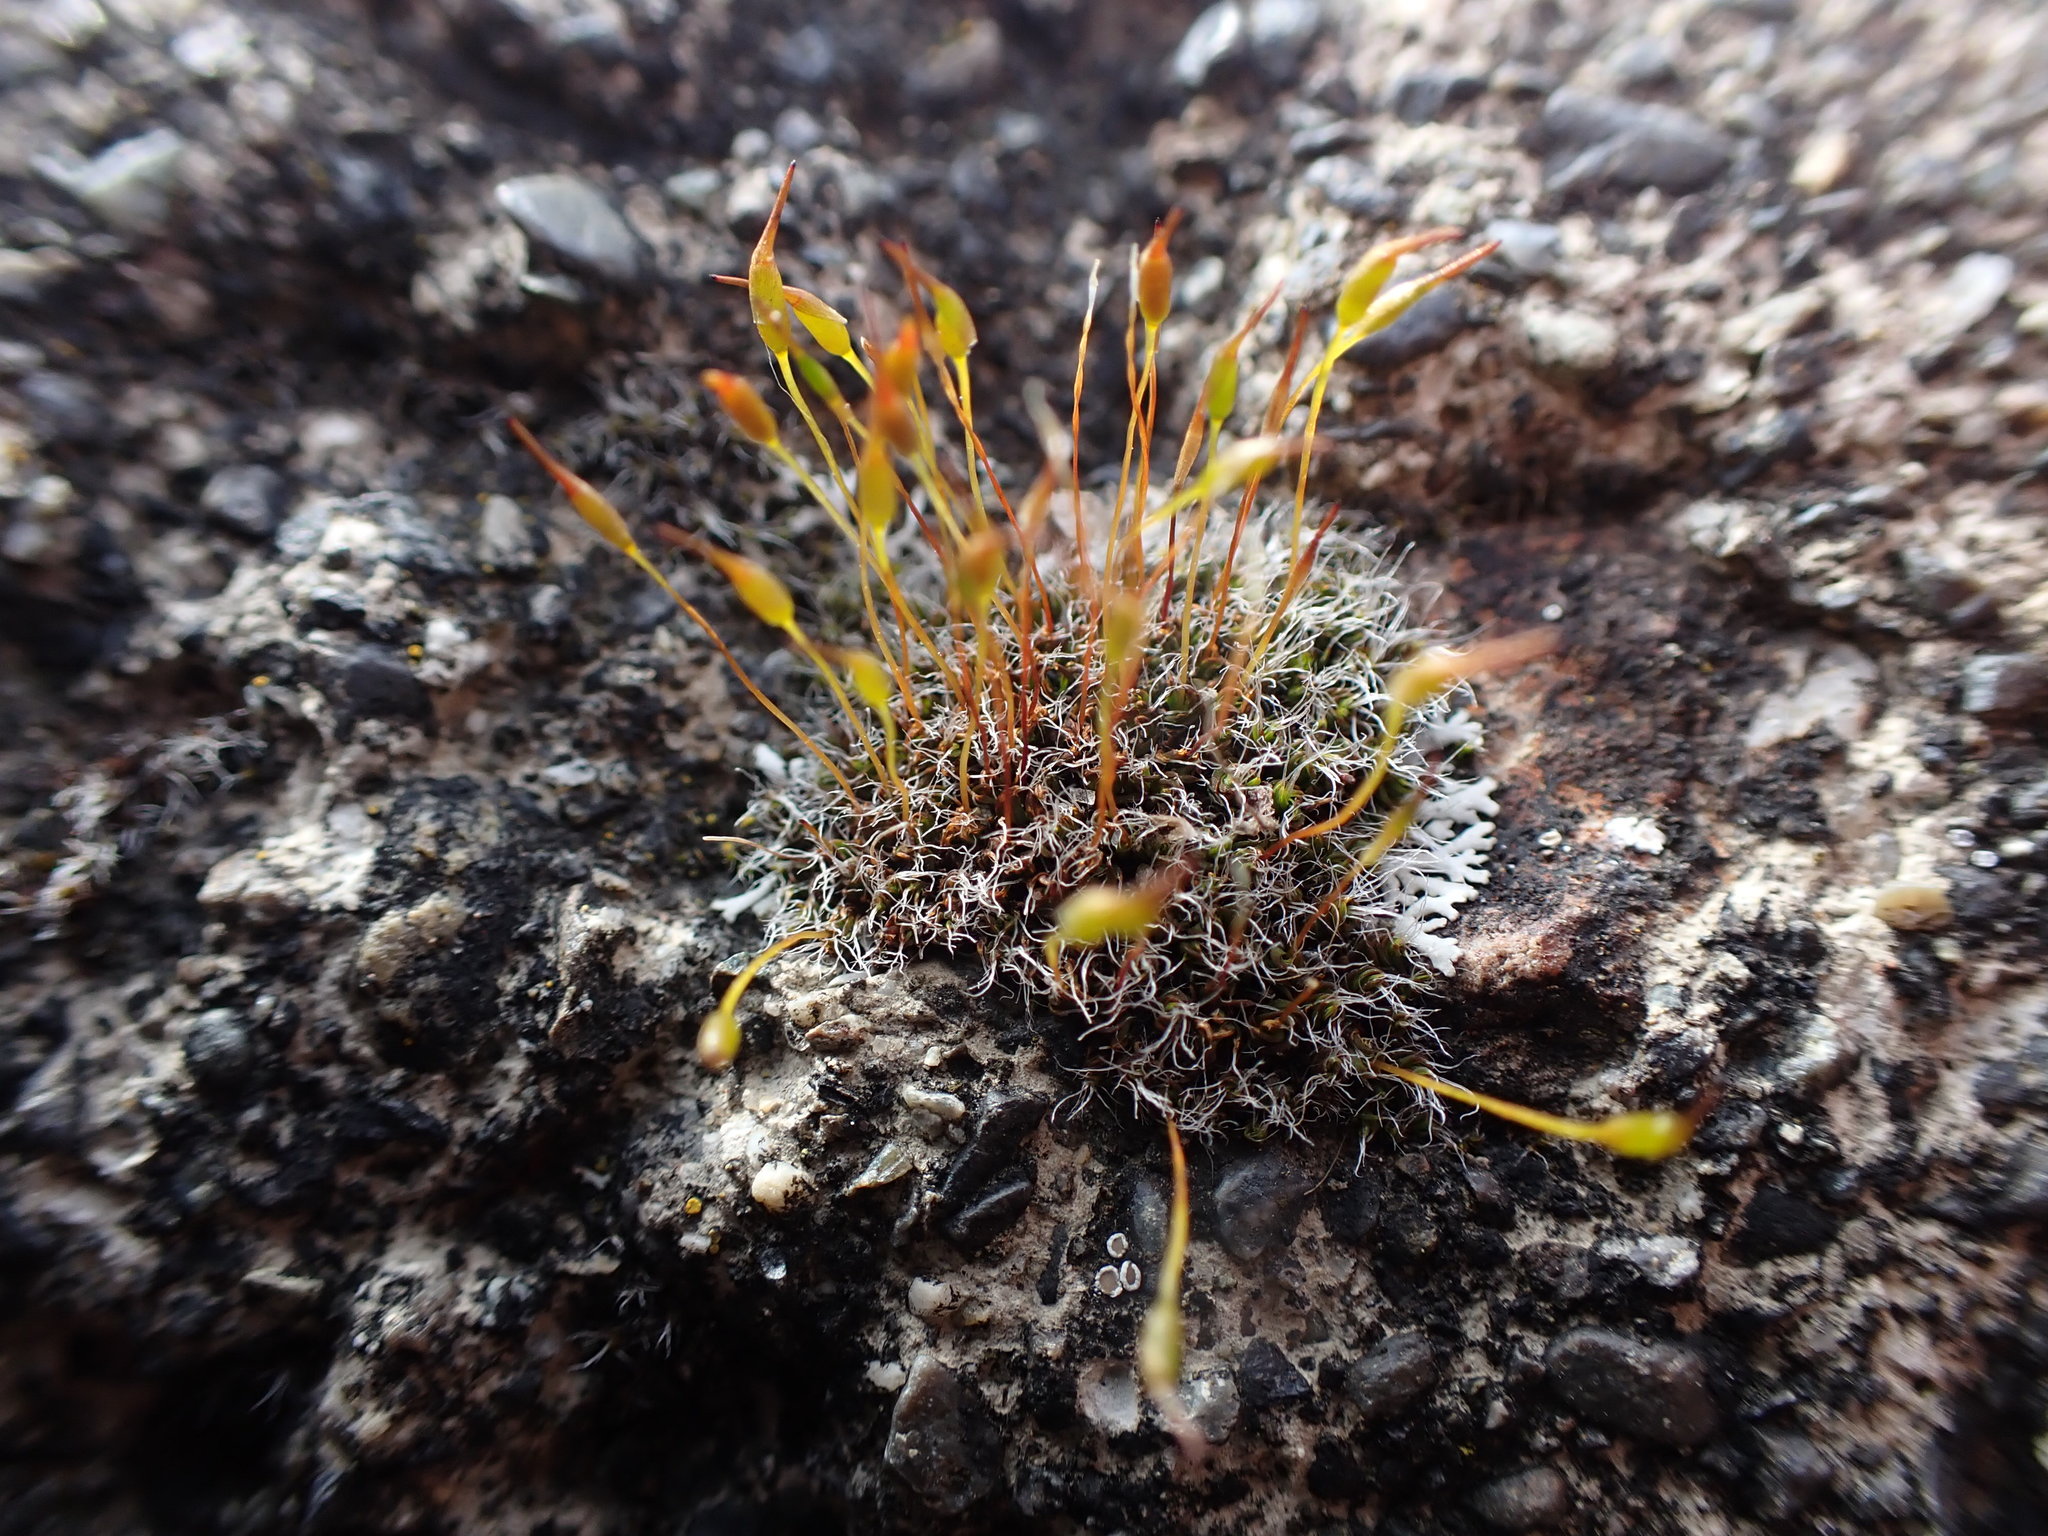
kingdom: Plantae
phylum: Bryophyta
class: Bryopsida
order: Pottiales
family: Pottiaceae
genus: Tortula
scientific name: Tortula muralis
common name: Wall screw-moss
